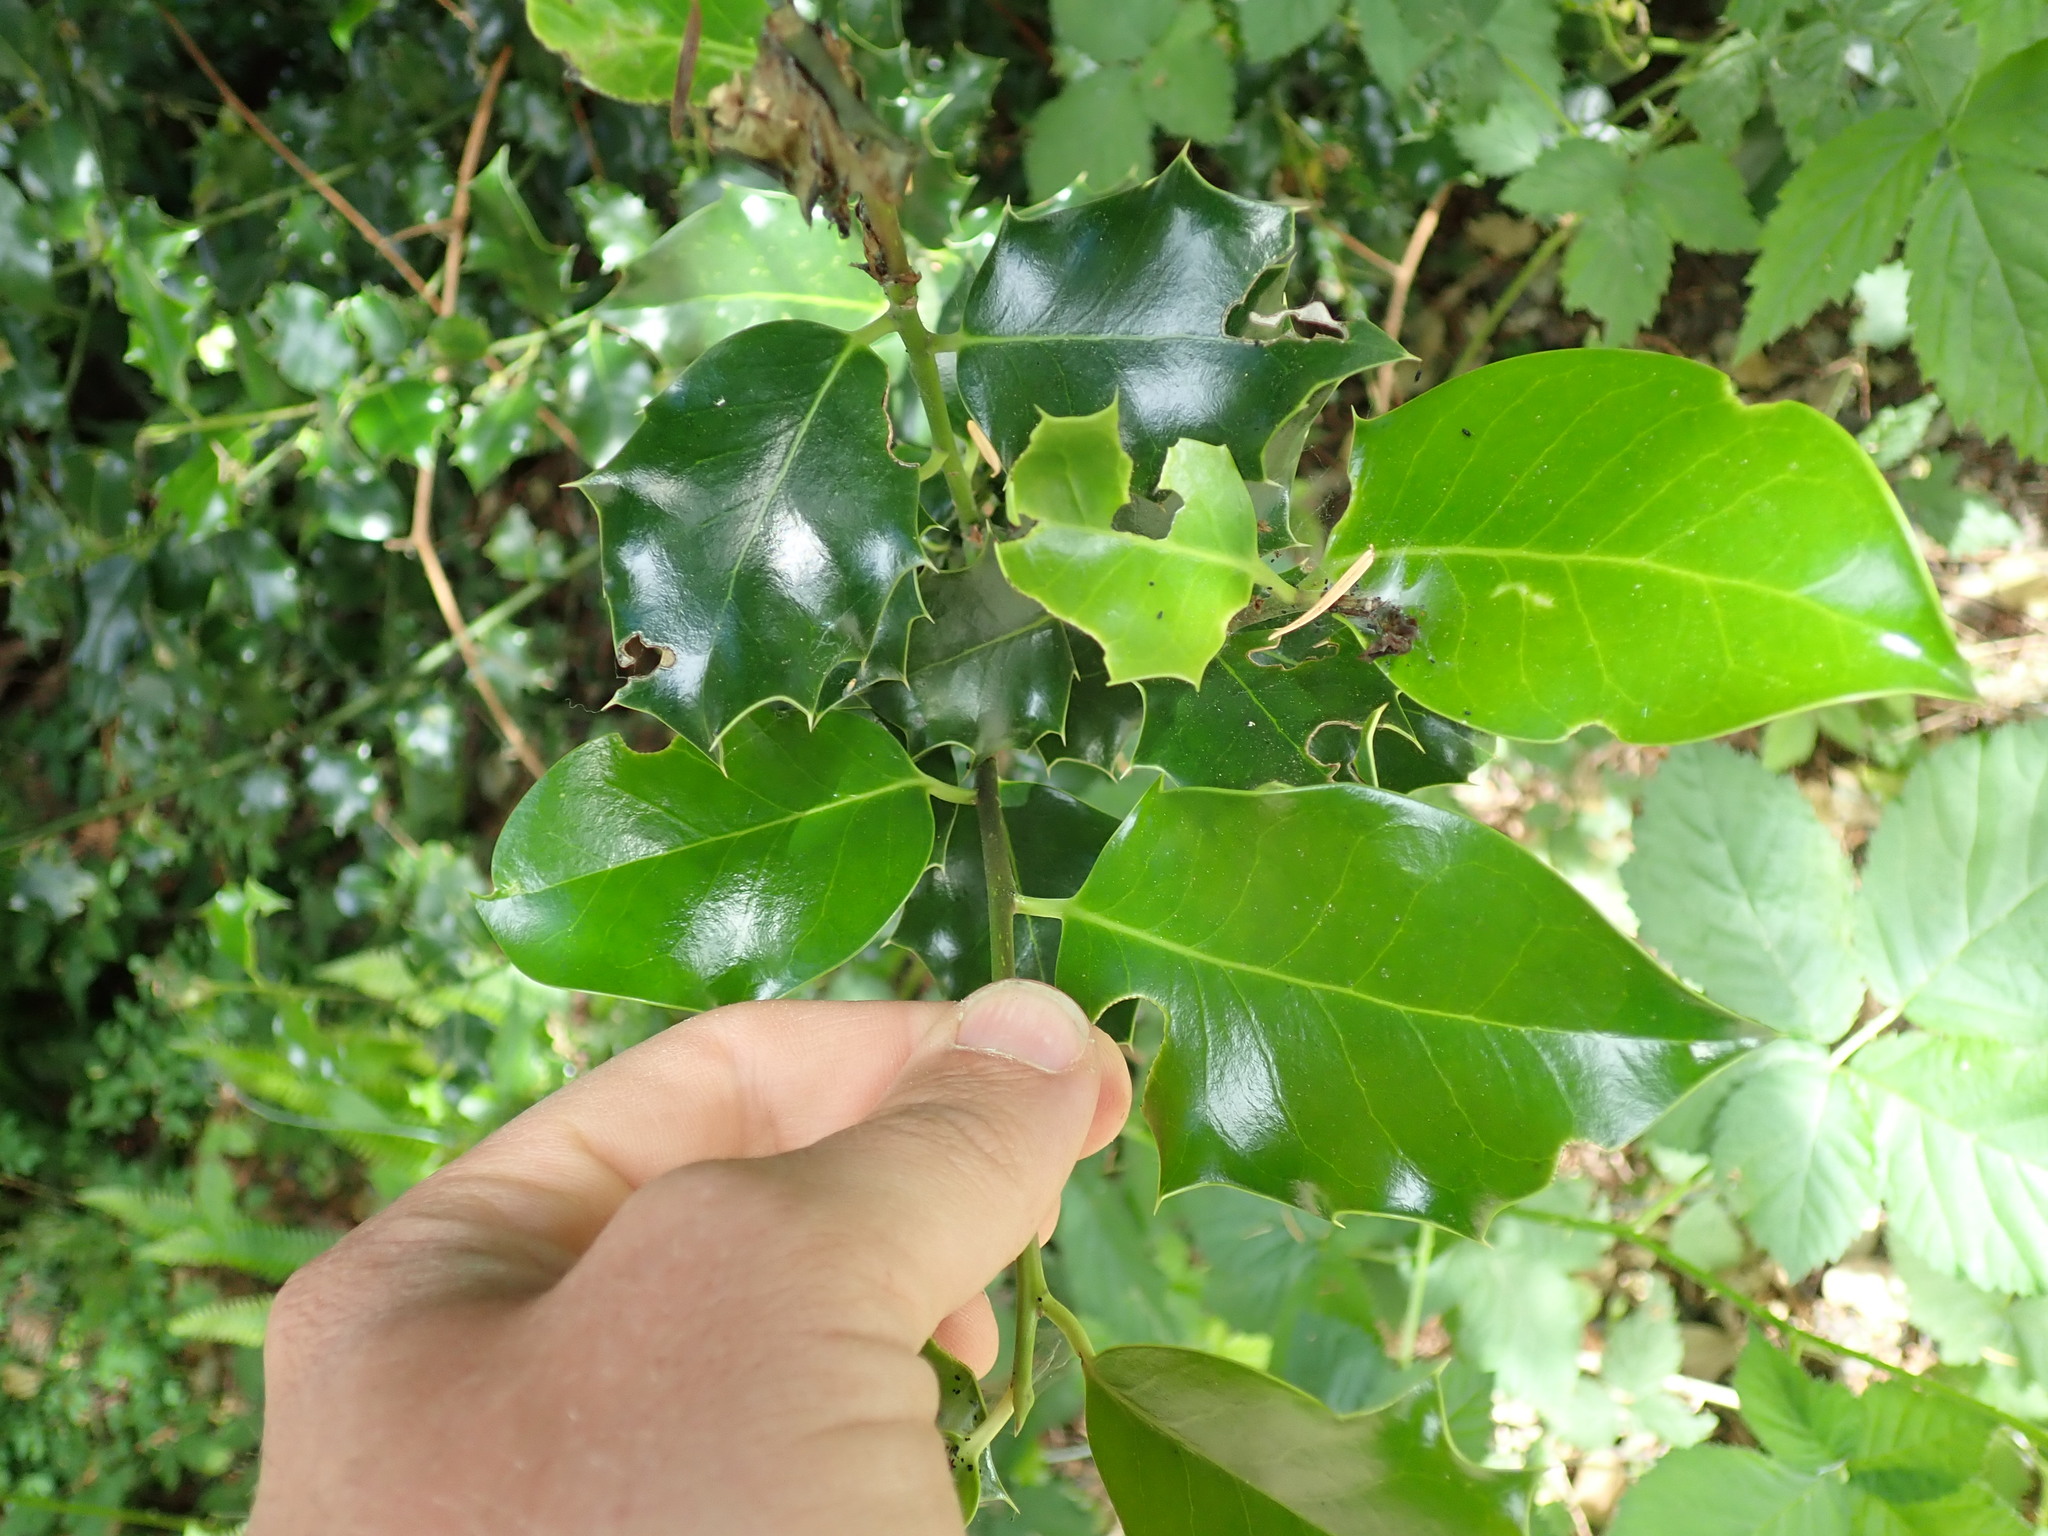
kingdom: Plantae
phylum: Tracheophyta
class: Magnoliopsida
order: Aquifoliales
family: Aquifoliaceae
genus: Ilex
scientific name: Ilex aquifolium
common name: English holly
